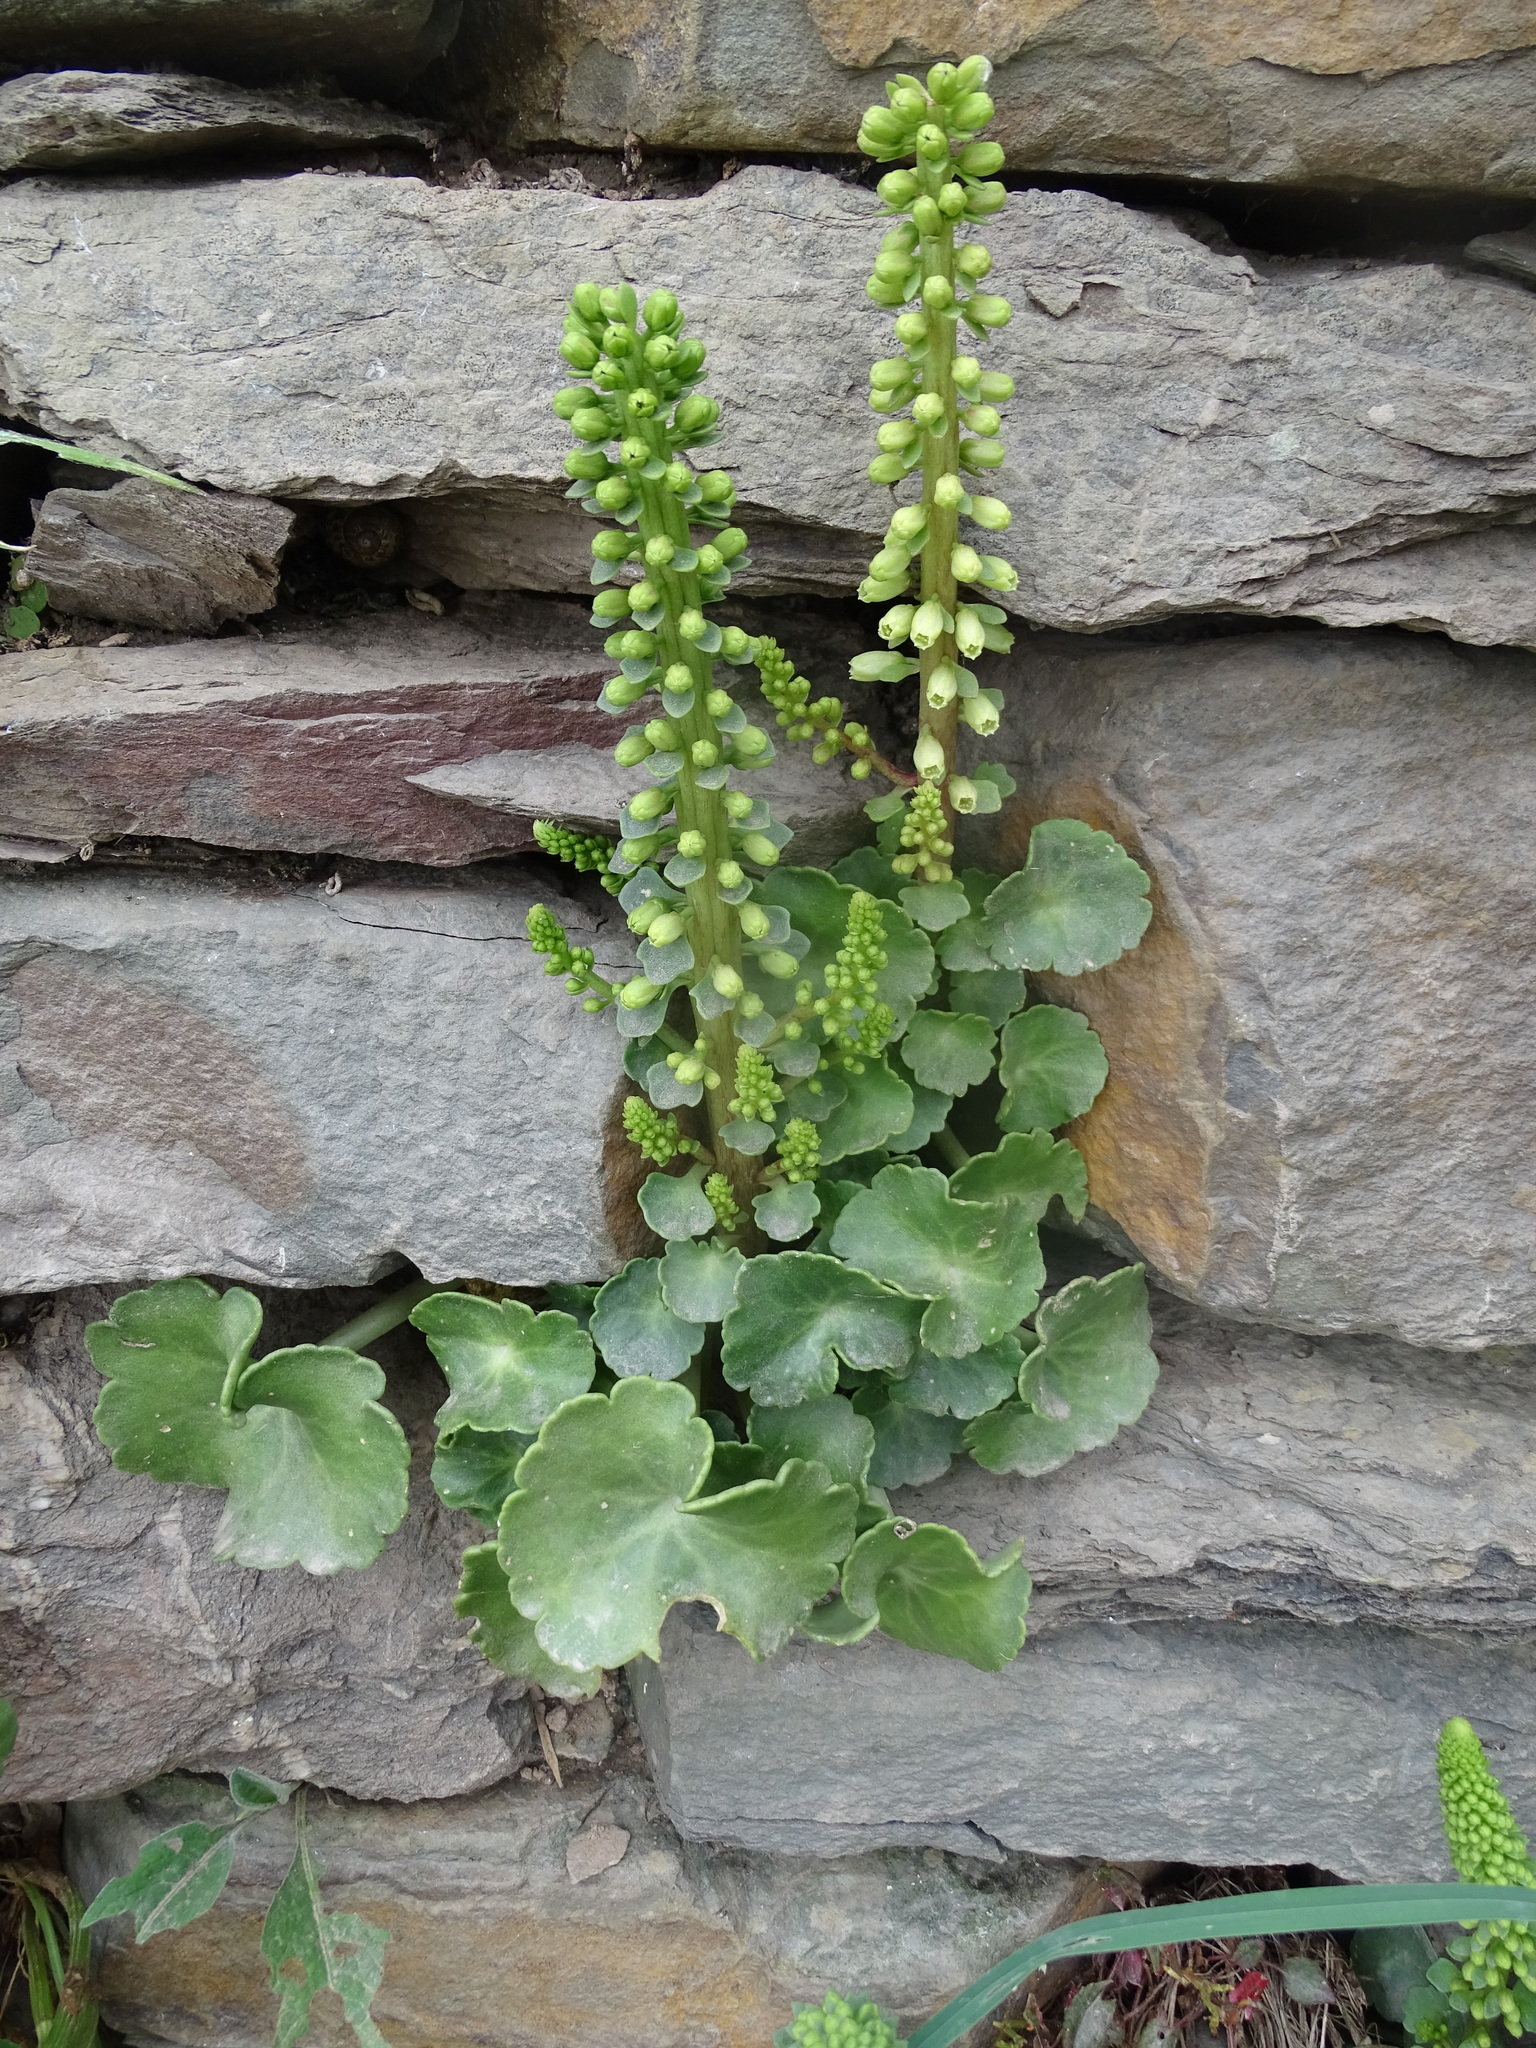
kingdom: Plantae
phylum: Tracheophyta
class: Magnoliopsida
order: Saxifragales
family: Crassulaceae
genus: Umbilicus
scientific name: Umbilicus rupestris
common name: Navelwort
